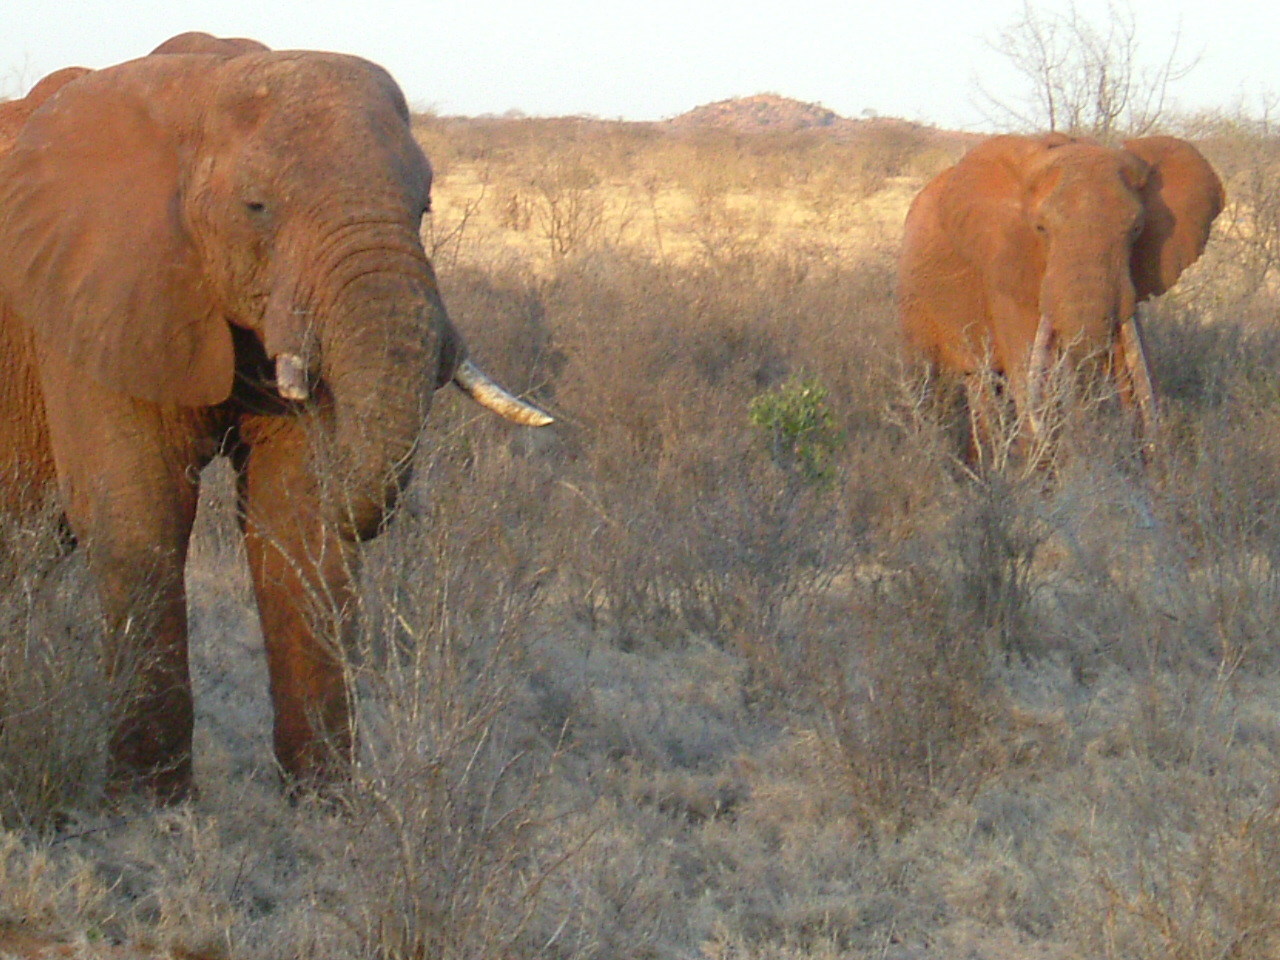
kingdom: Animalia
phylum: Chordata
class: Mammalia
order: Proboscidea
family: Elephantidae
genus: Loxodonta
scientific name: Loxodonta africana
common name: African elephant
